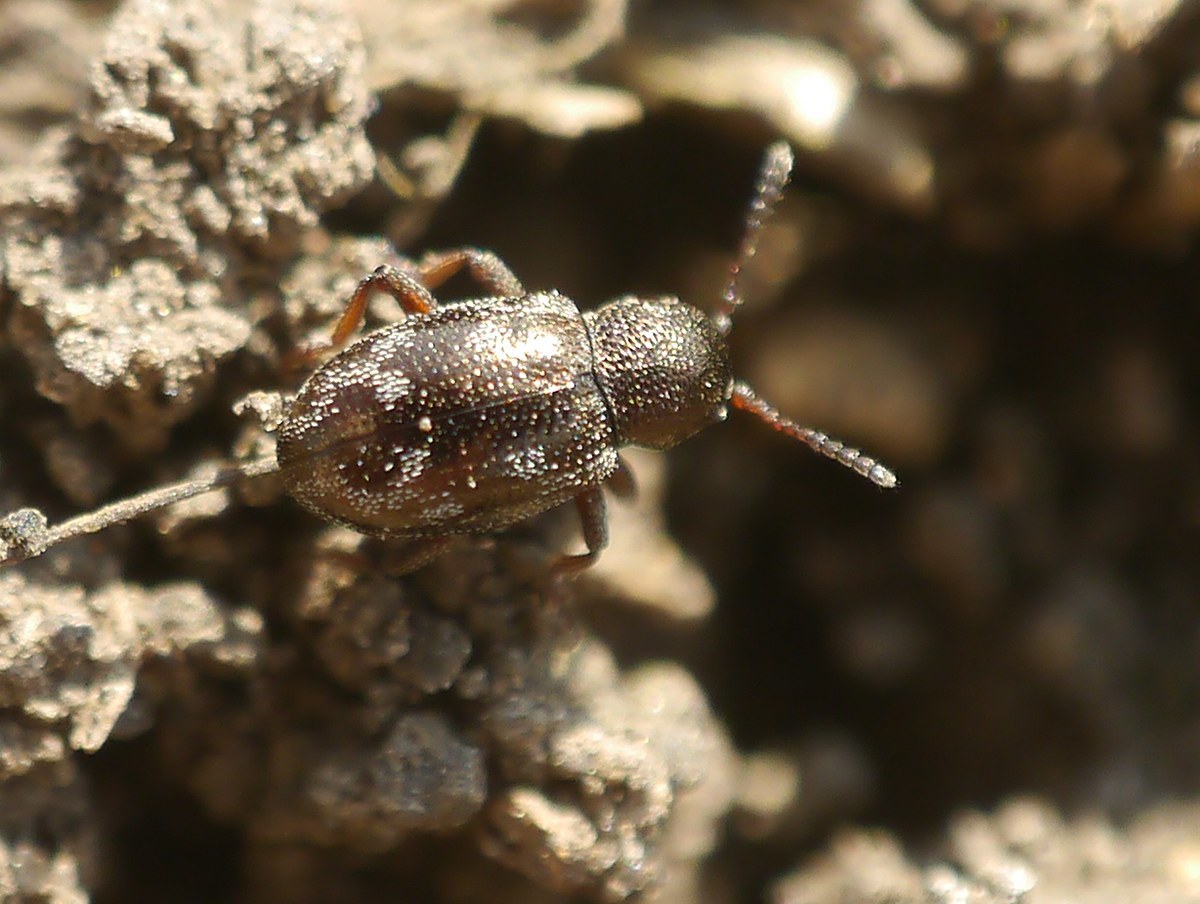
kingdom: Animalia
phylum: Arthropoda
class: Insecta
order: Coleoptera
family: Chrysomelidae
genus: Pachnephorus
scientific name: Pachnephorus villosus
